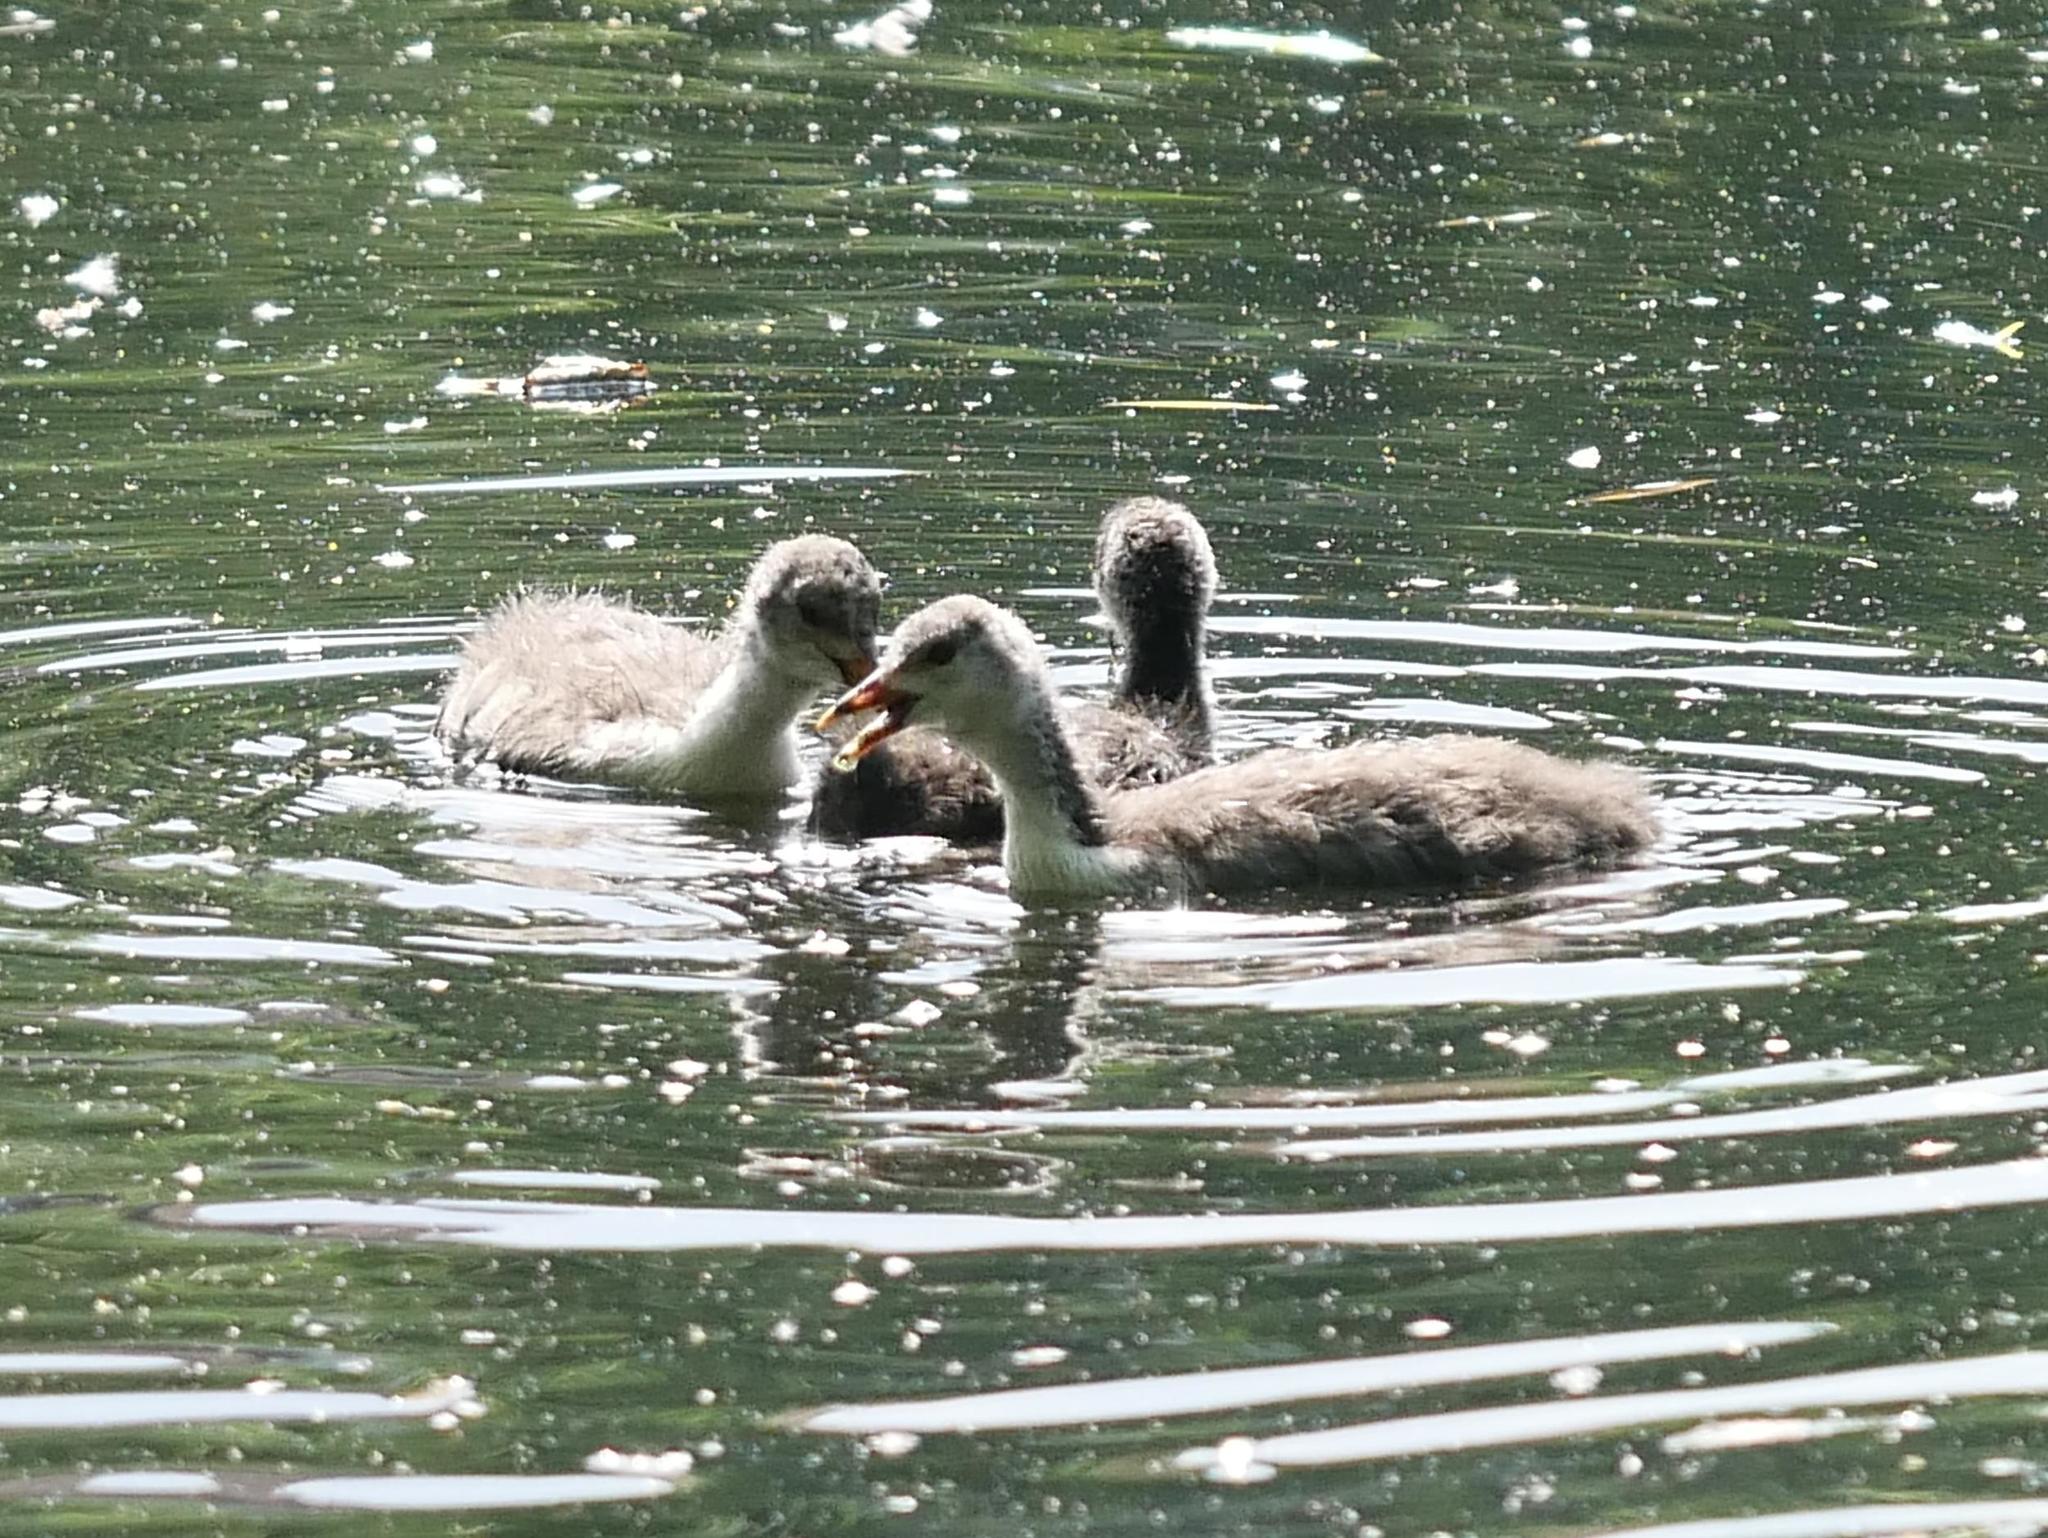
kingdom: Animalia
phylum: Chordata
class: Aves
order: Gruiformes
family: Rallidae
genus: Fulica
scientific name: Fulica atra
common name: Eurasian coot
